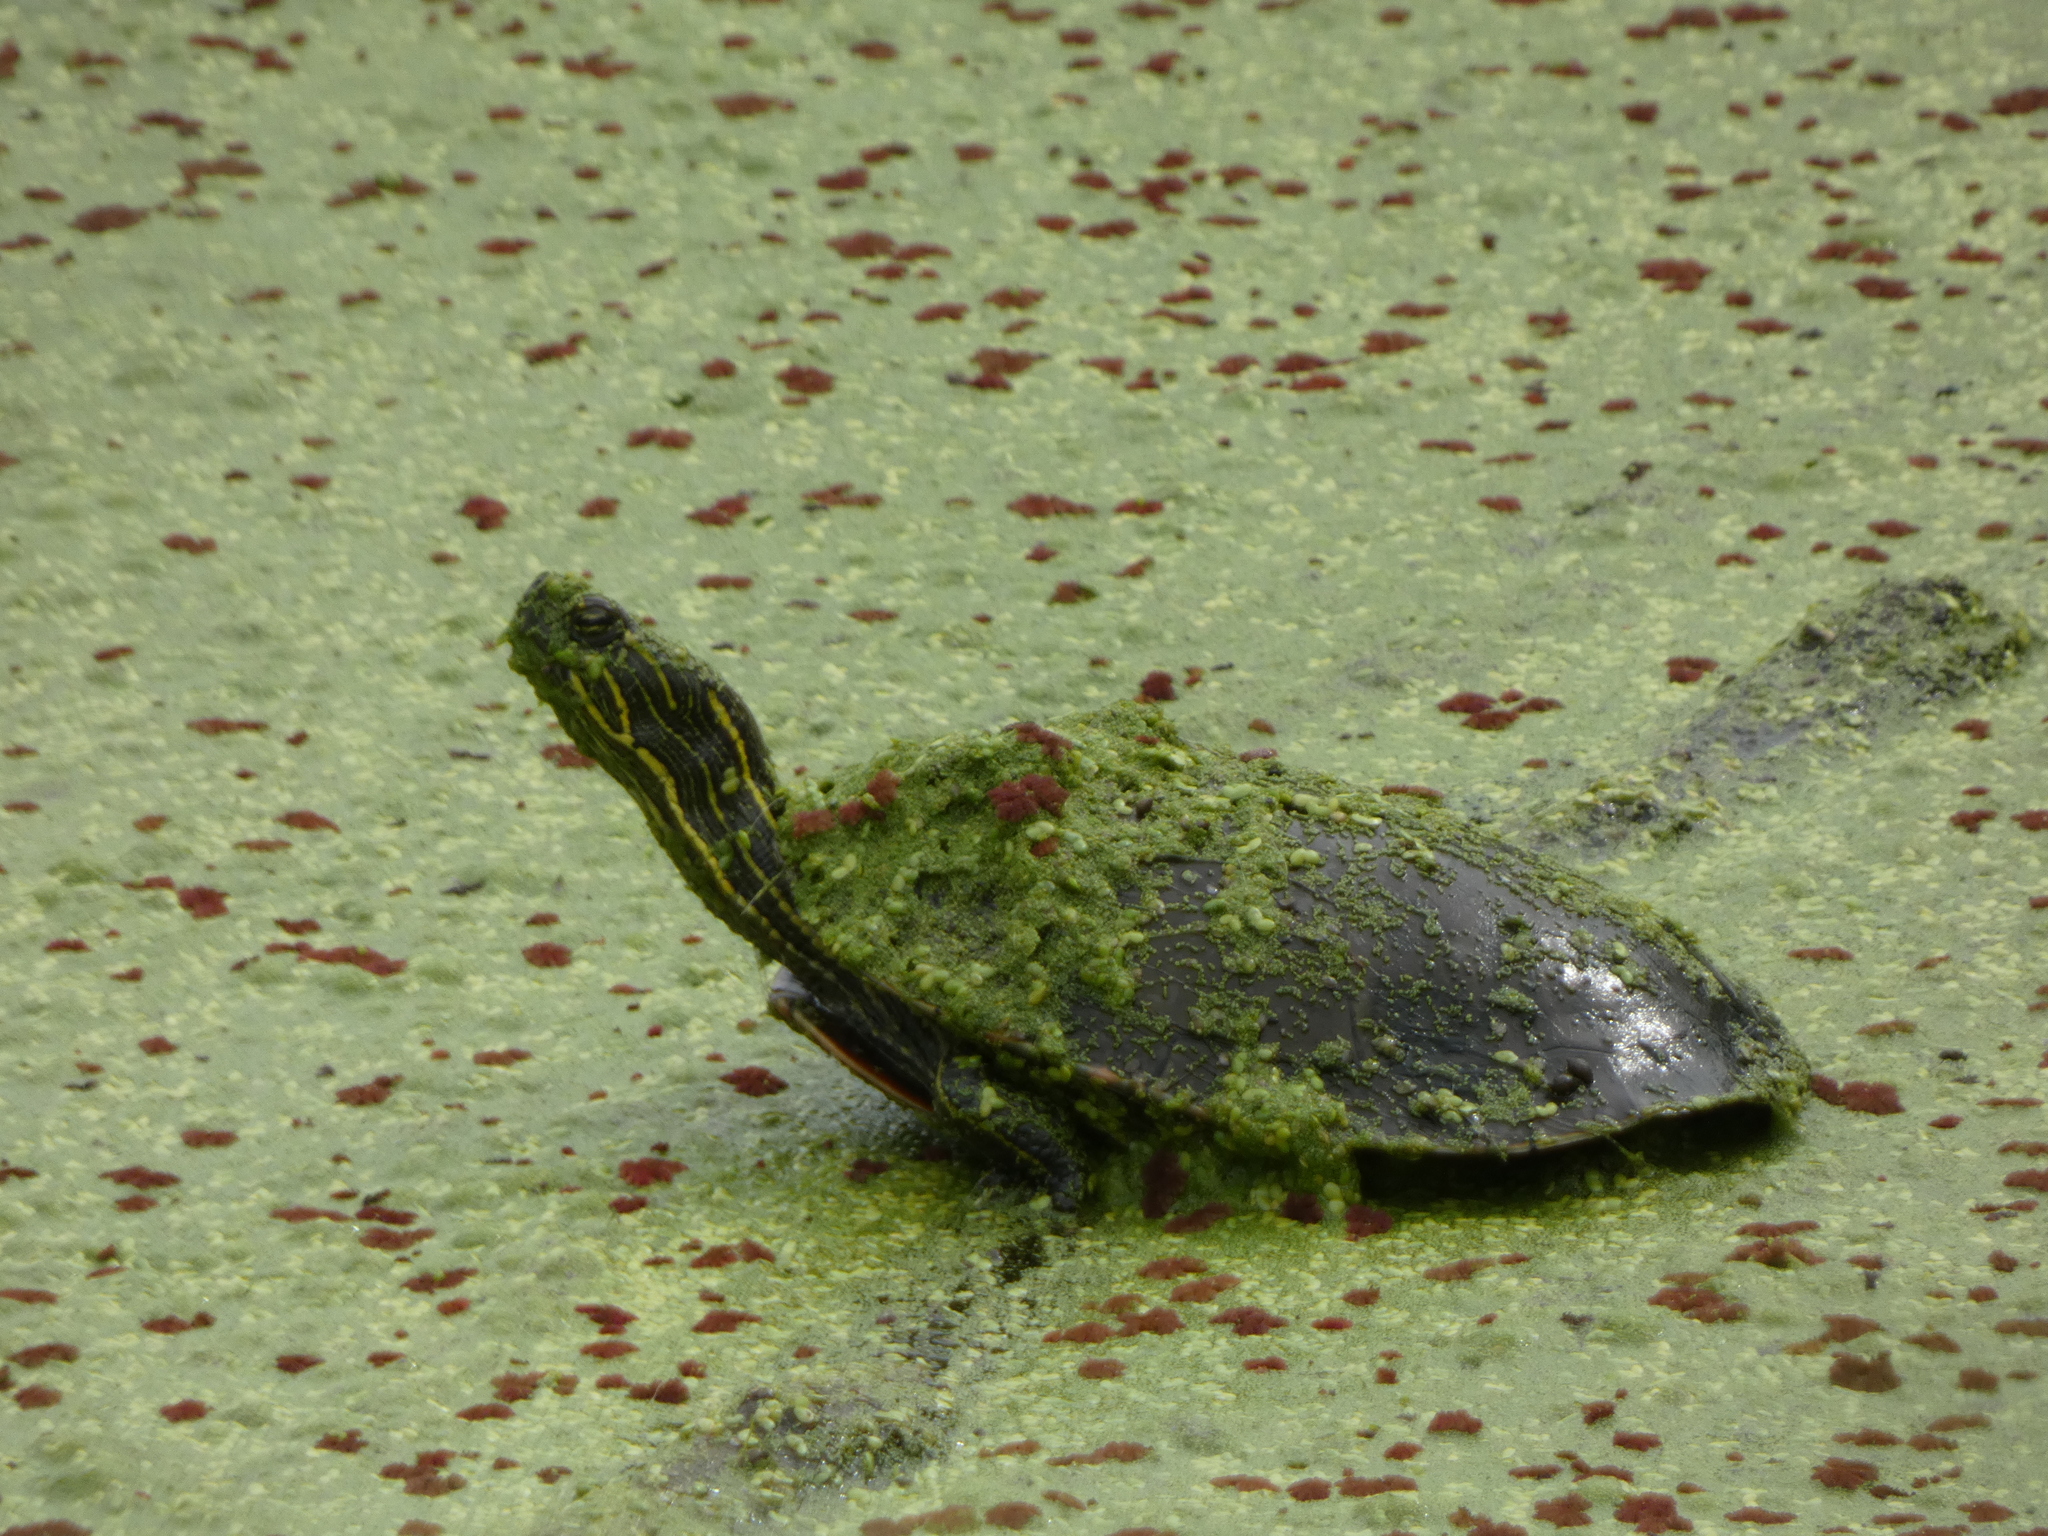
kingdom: Animalia
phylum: Chordata
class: Testudines
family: Emydidae
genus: Chrysemys
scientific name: Chrysemys picta
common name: Painted turtle
